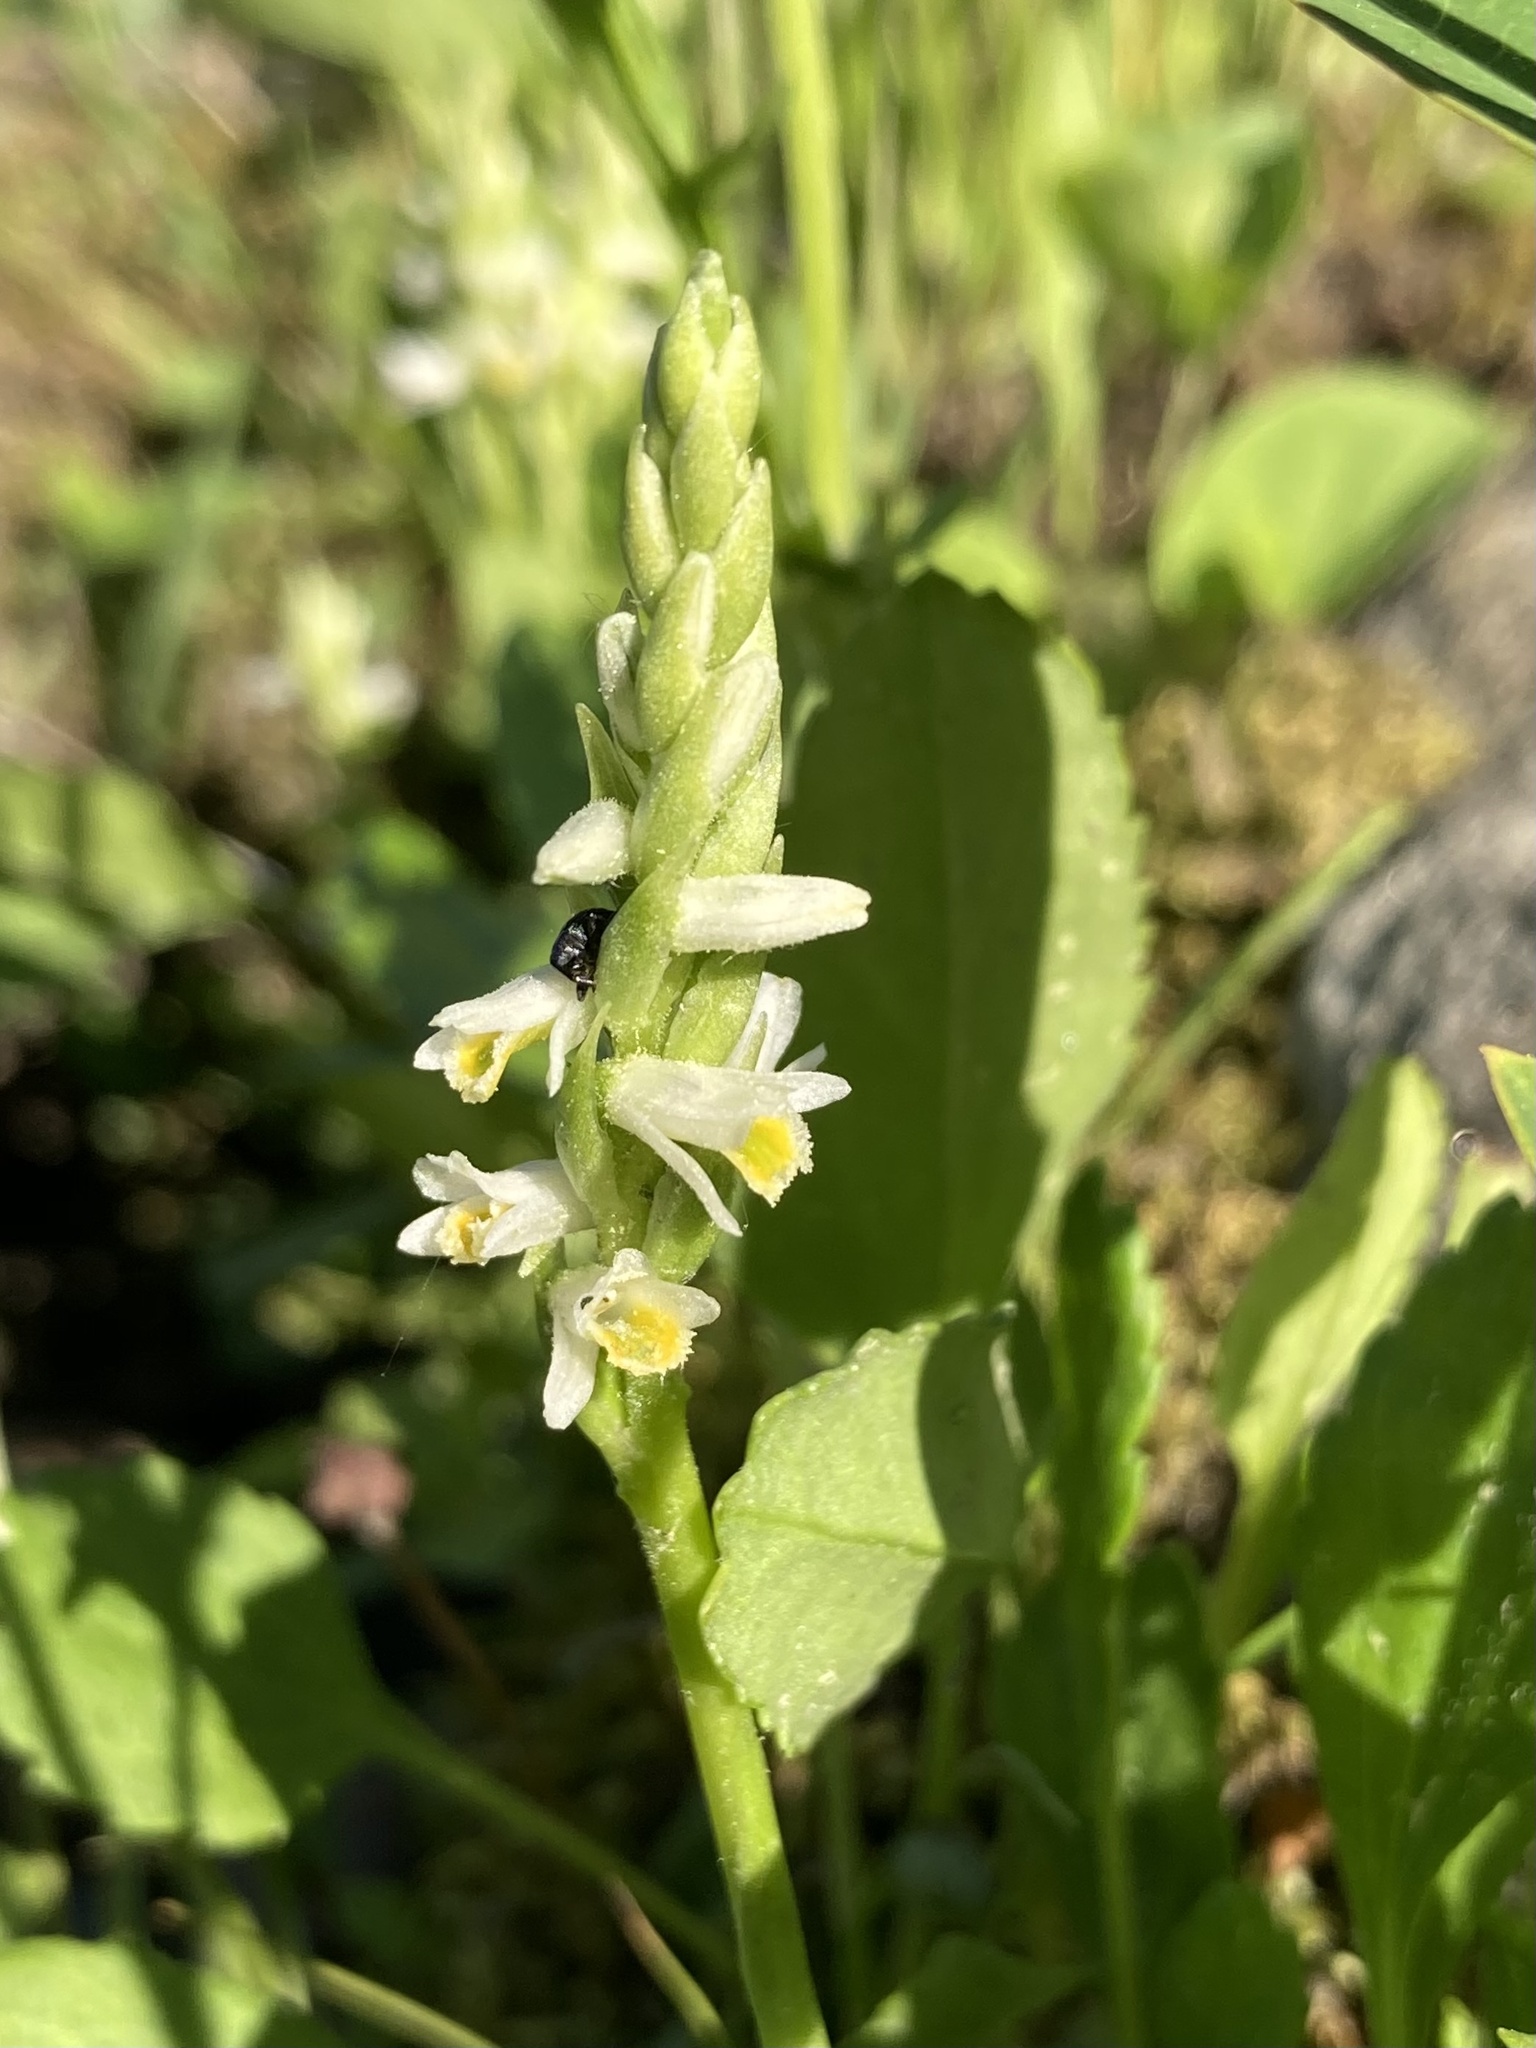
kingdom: Plantae
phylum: Tracheophyta
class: Liliopsida
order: Asparagales
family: Orchidaceae
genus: Spiranthes
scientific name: Spiranthes lucida
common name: Broad-leaved ladies'-tresses
